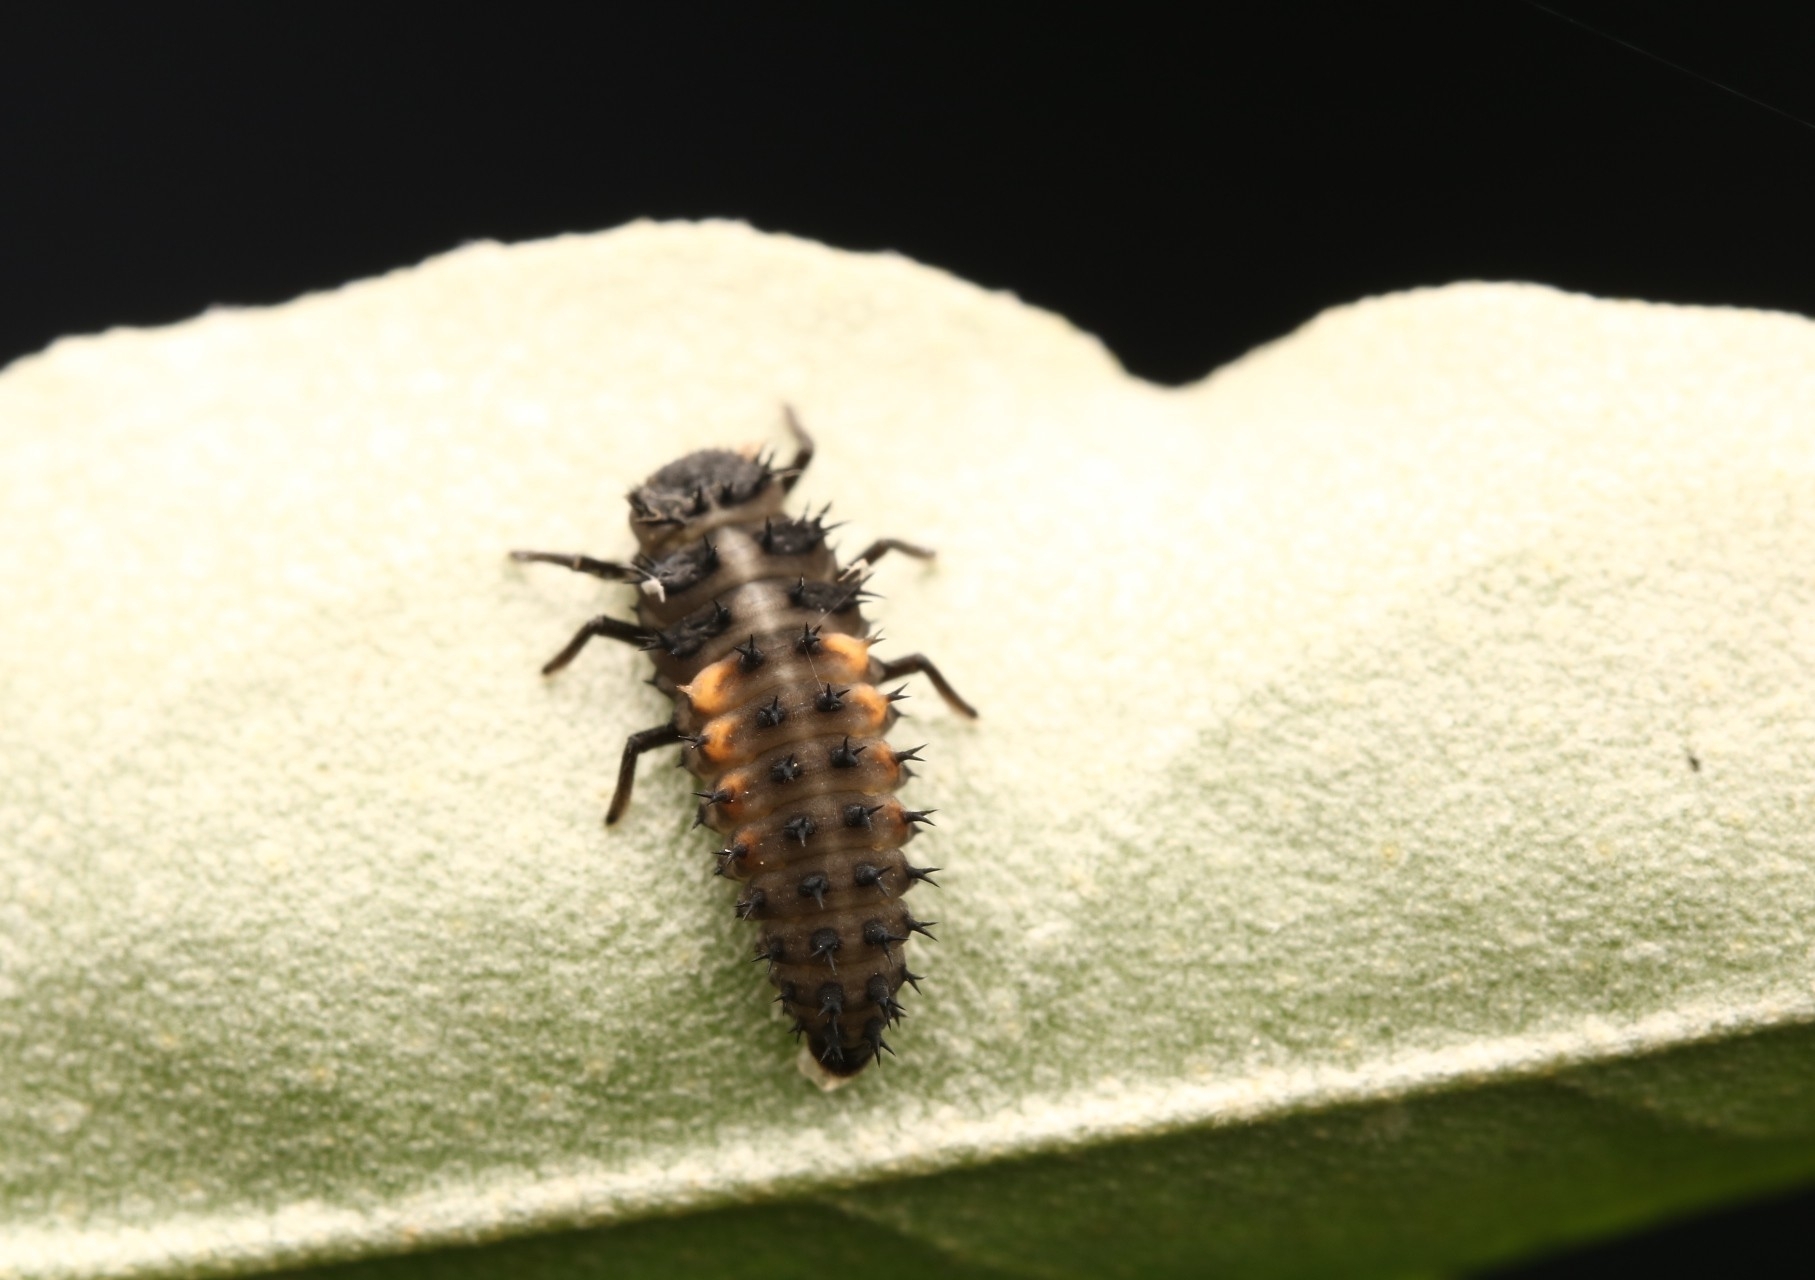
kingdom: Animalia
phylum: Arthropoda
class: Insecta
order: Coleoptera
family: Coccinellidae
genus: Harmonia
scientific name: Harmonia axyridis
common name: Harlequin ladybird
